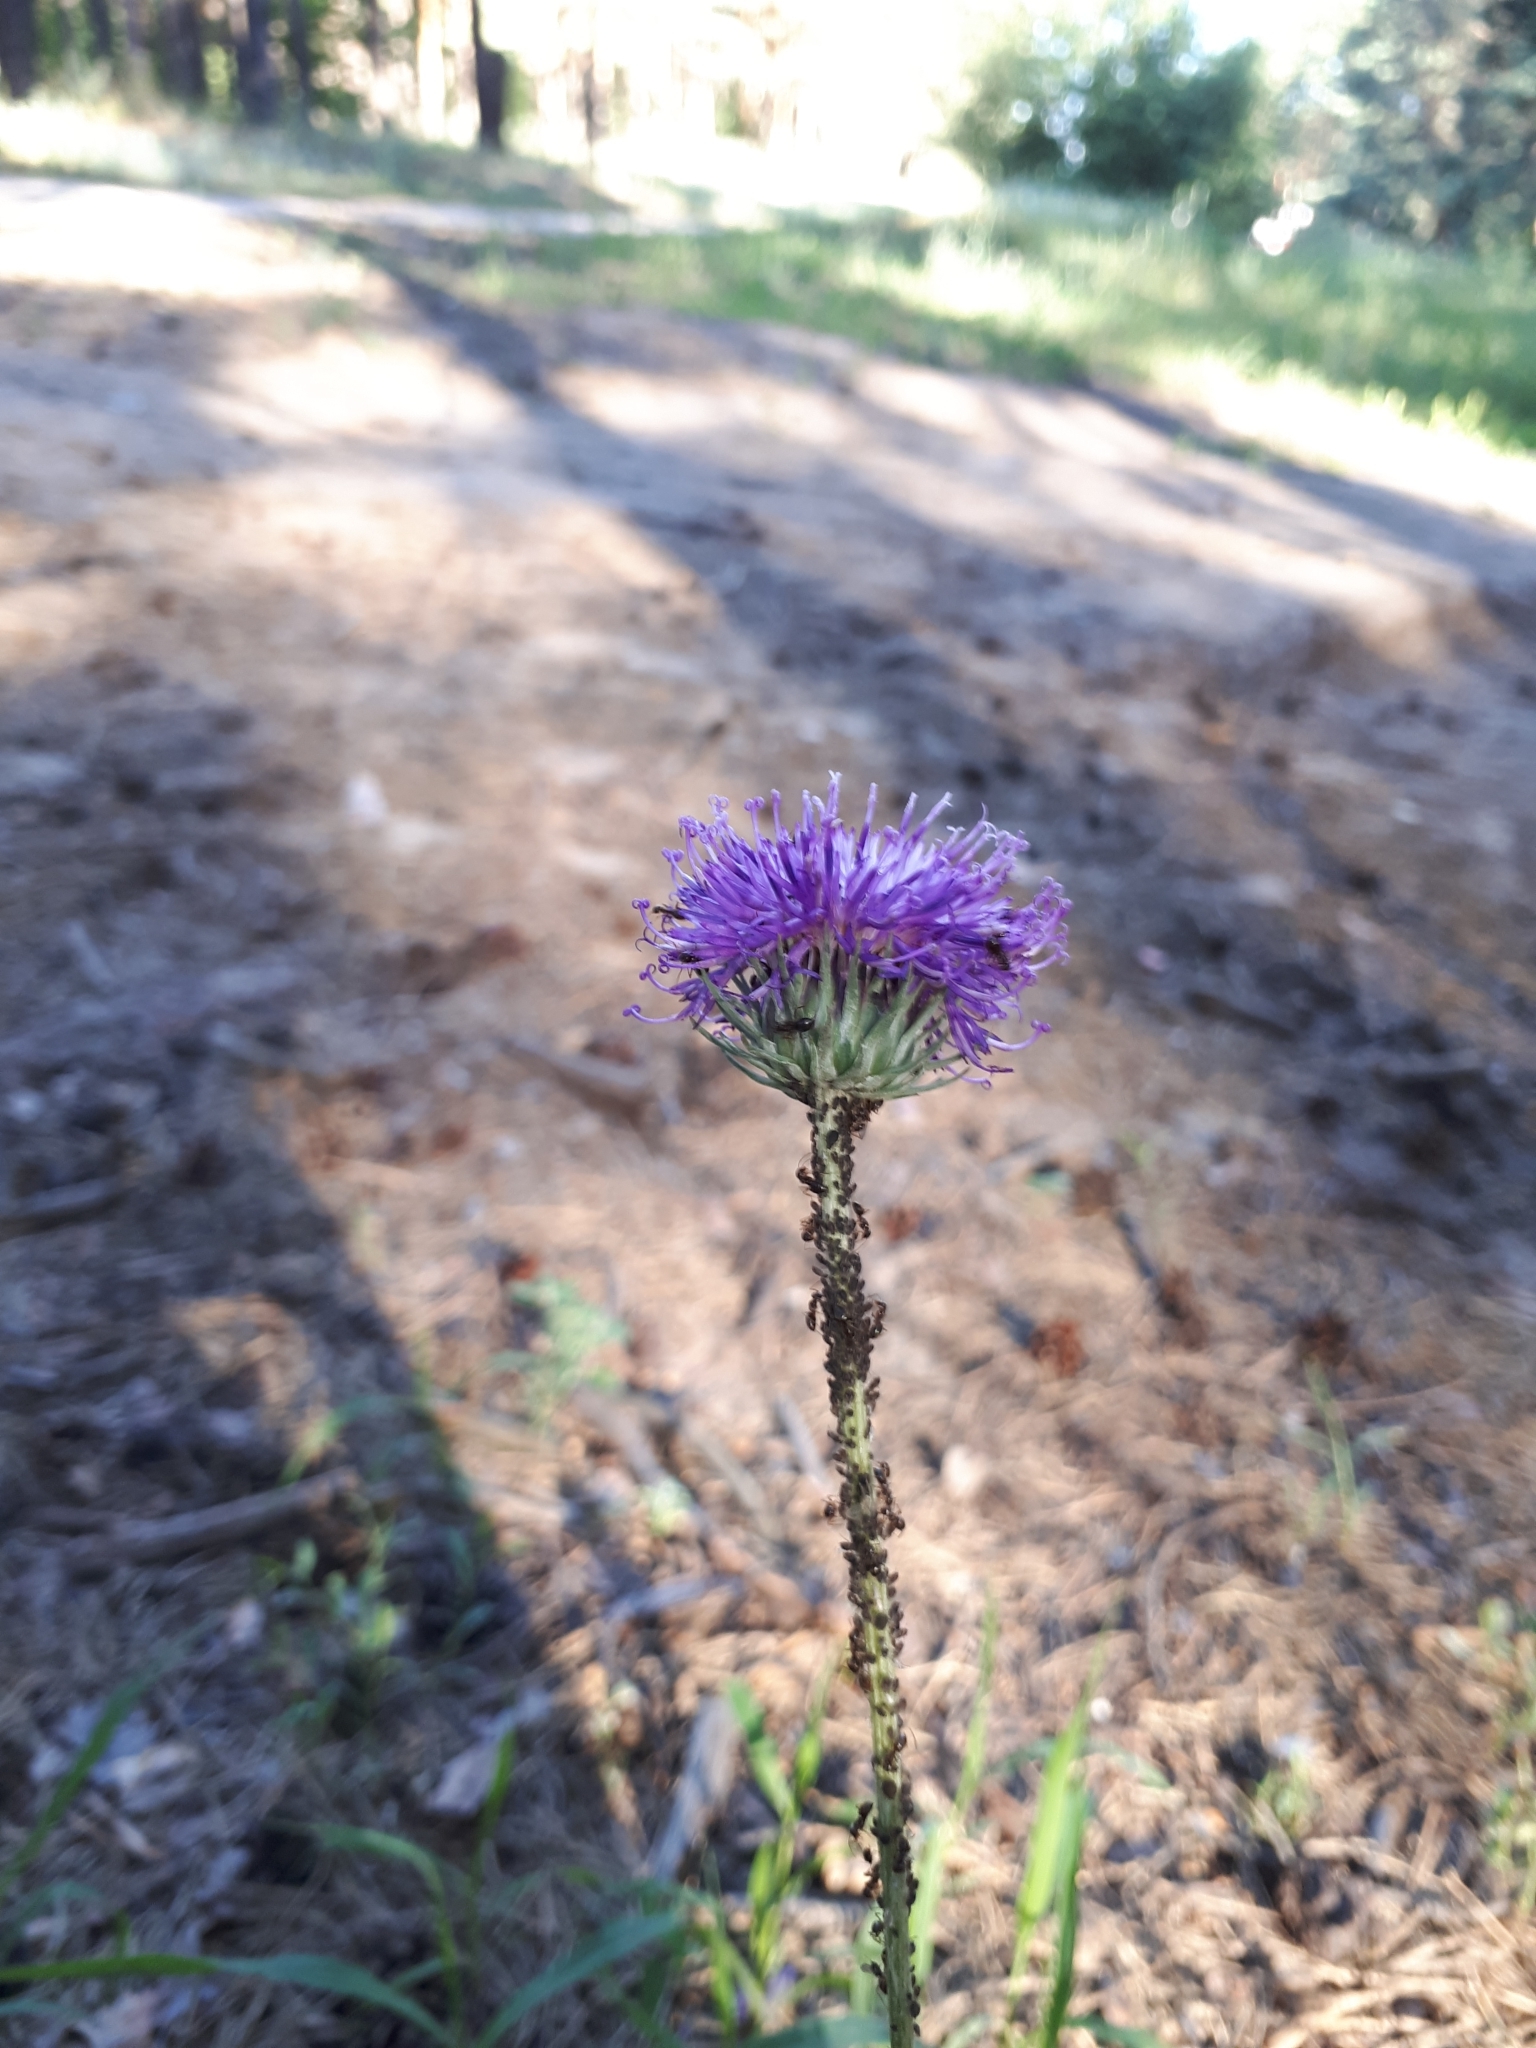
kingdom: Plantae
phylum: Tracheophyta
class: Magnoliopsida
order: Asterales
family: Asteraceae
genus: Jurinea
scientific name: Jurinea cyanoides
